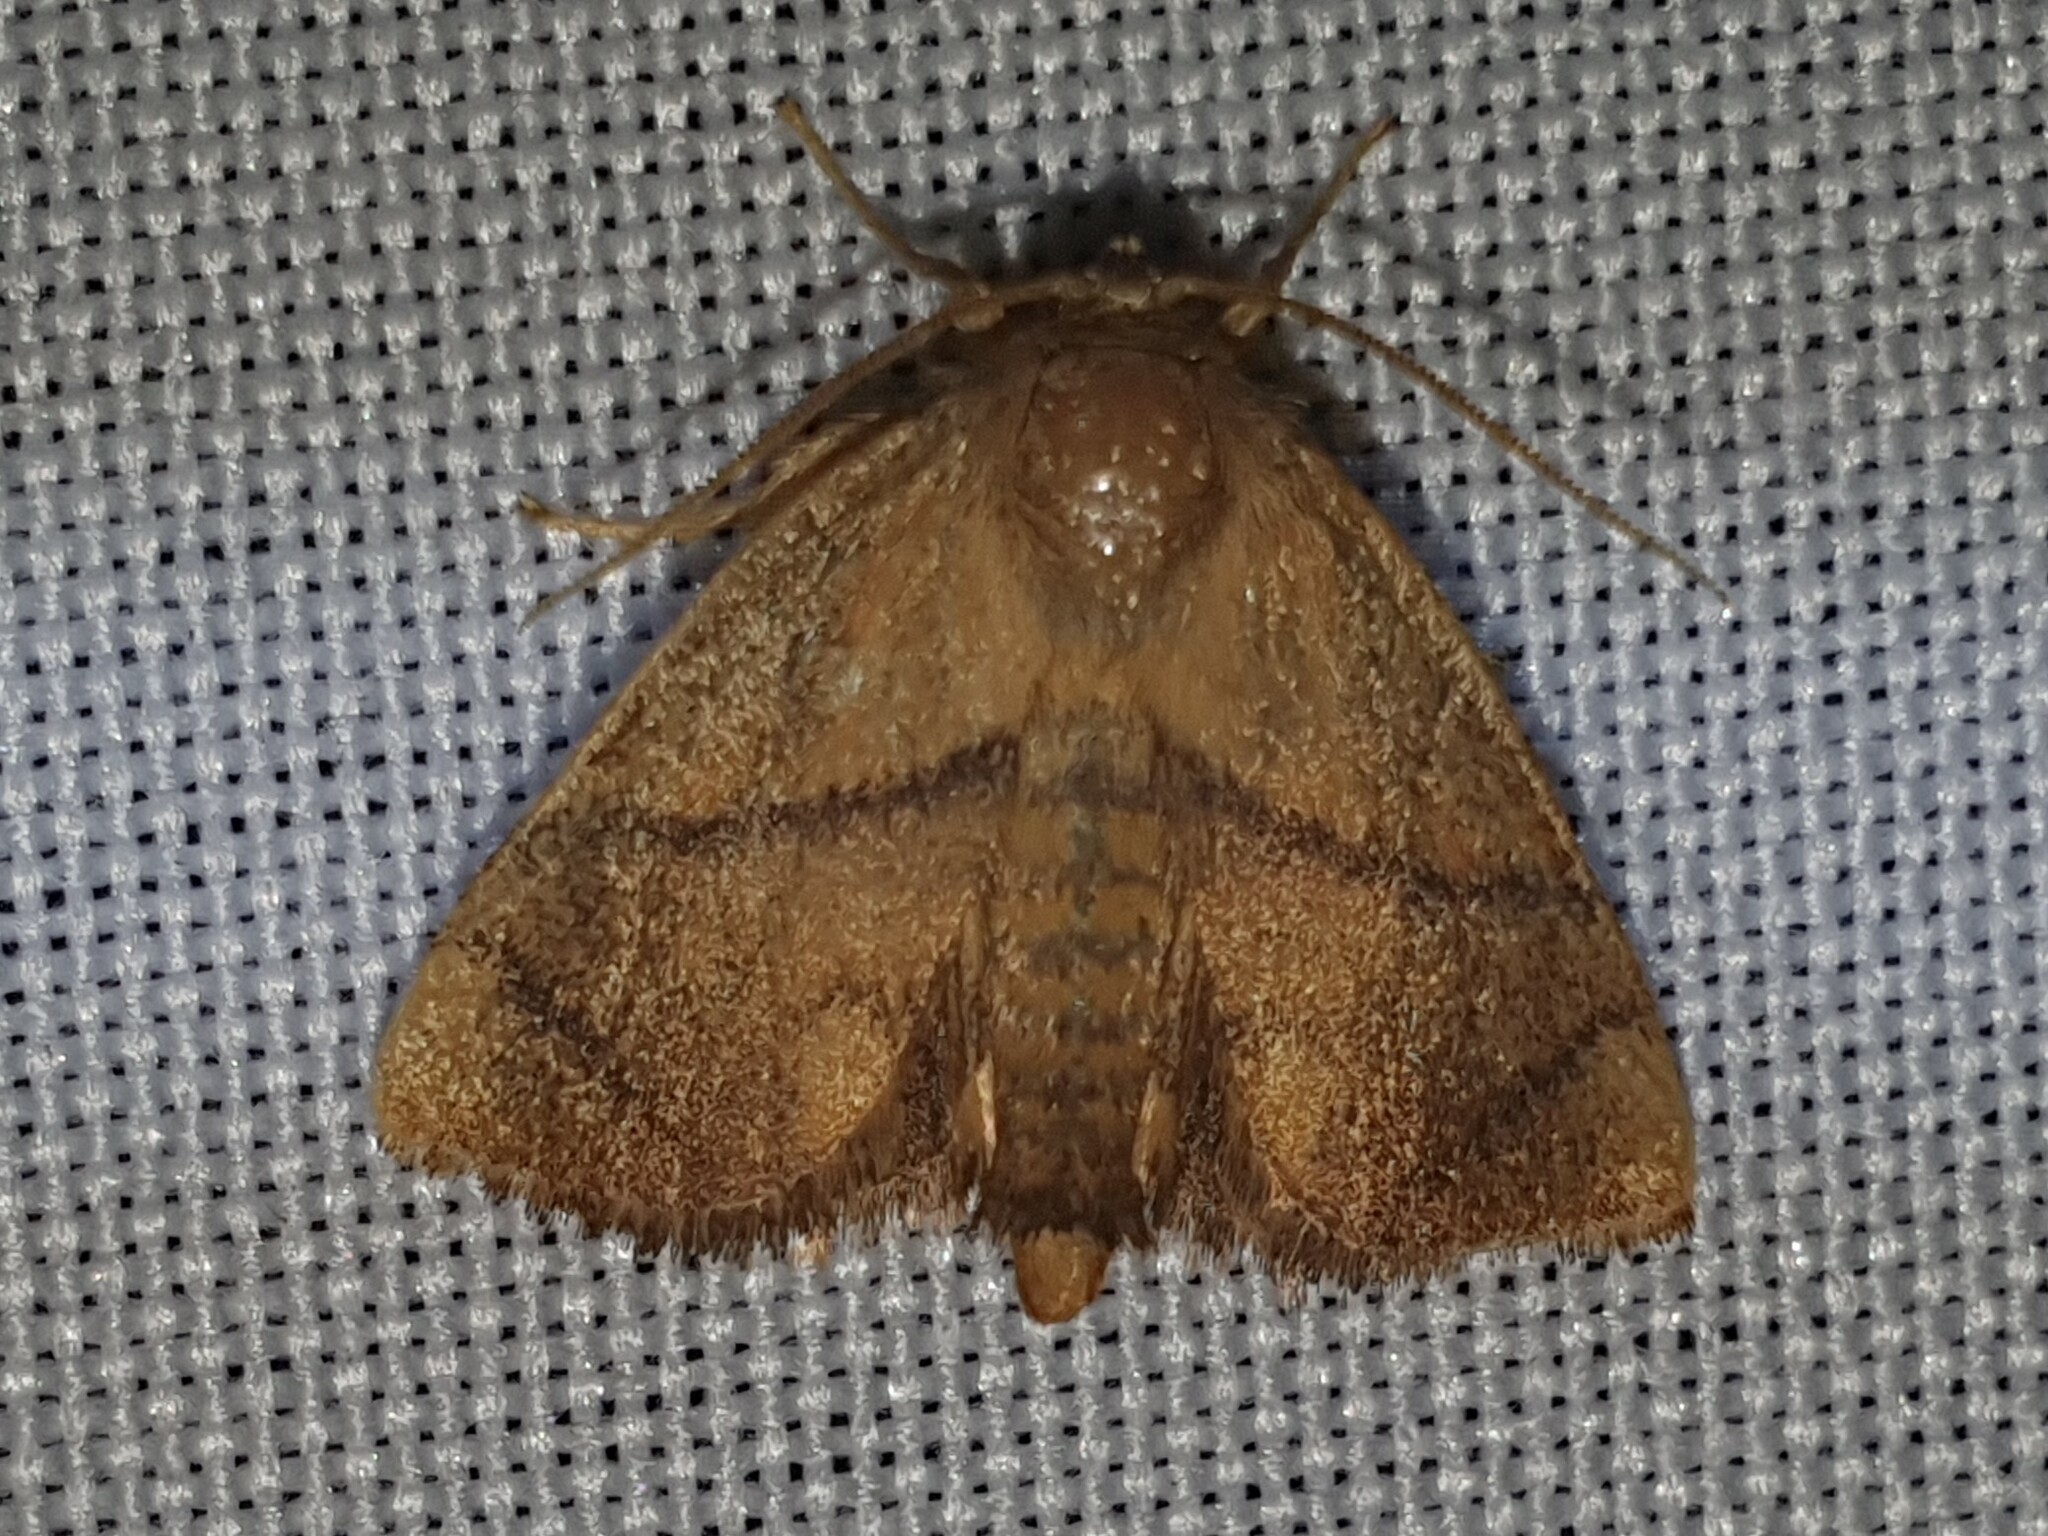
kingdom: Animalia
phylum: Arthropoda
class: Insecta
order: Lepidoptera
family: Limacodidae
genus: Apoda
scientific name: Apoda limacodes
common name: Festoon
